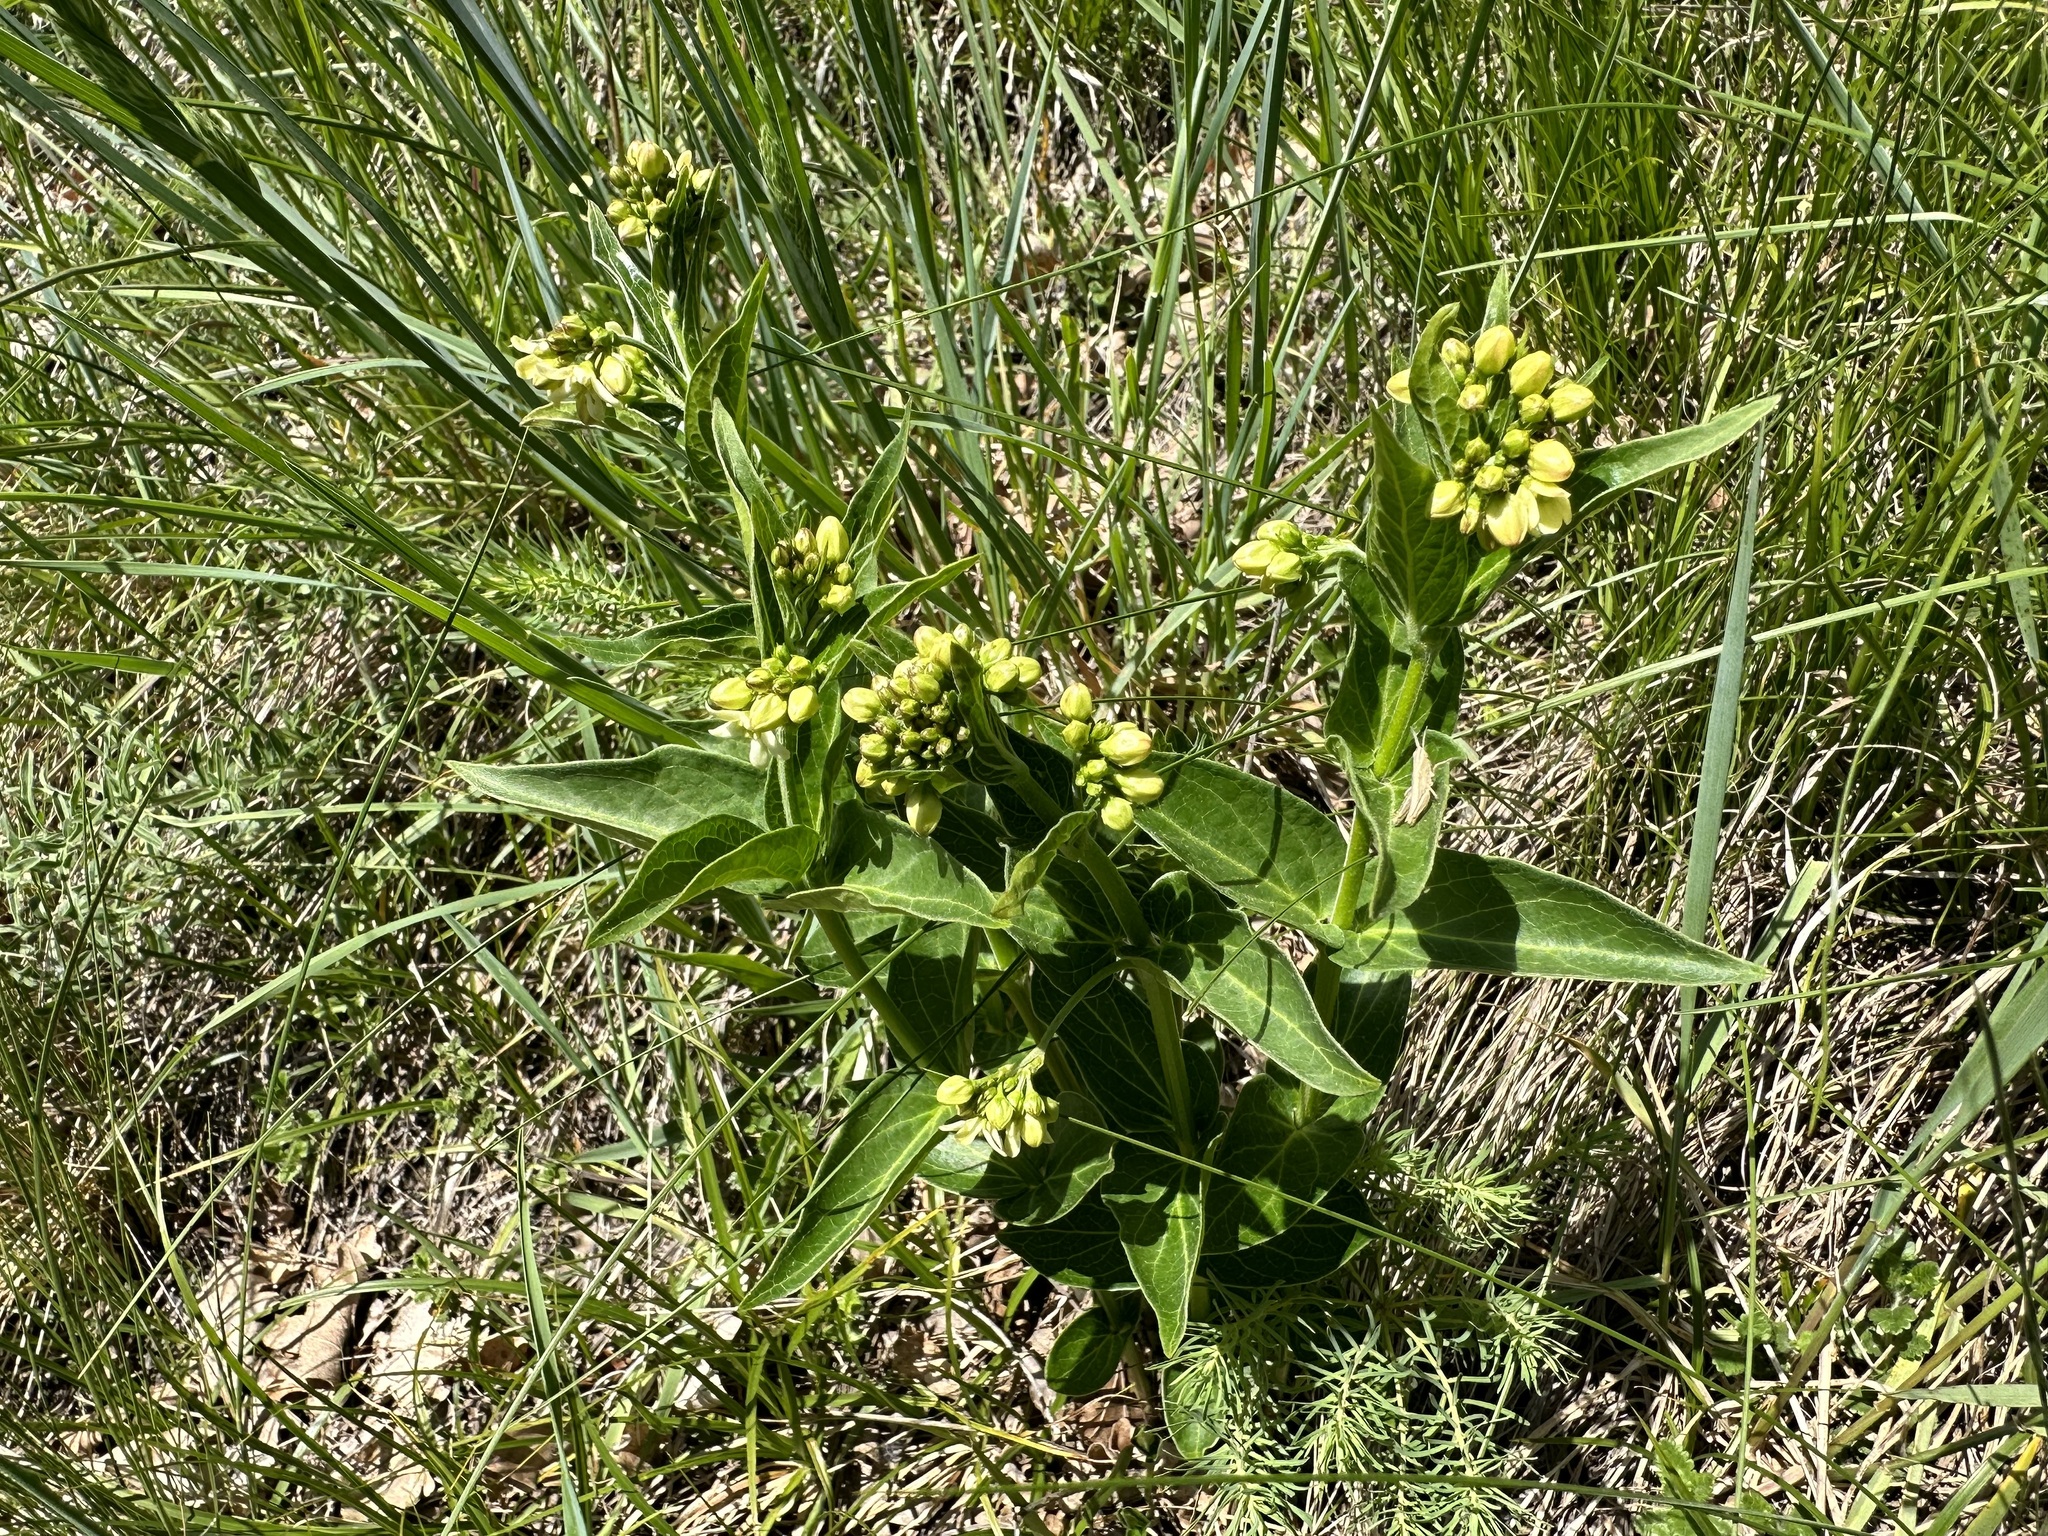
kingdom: Plantae
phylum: Tracheophyta
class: Magnoliopsida
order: Gentianales
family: Apocynaceae
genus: Vincetoxicum
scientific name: Vincetoxicum hirundinaria
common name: White swallowwort
